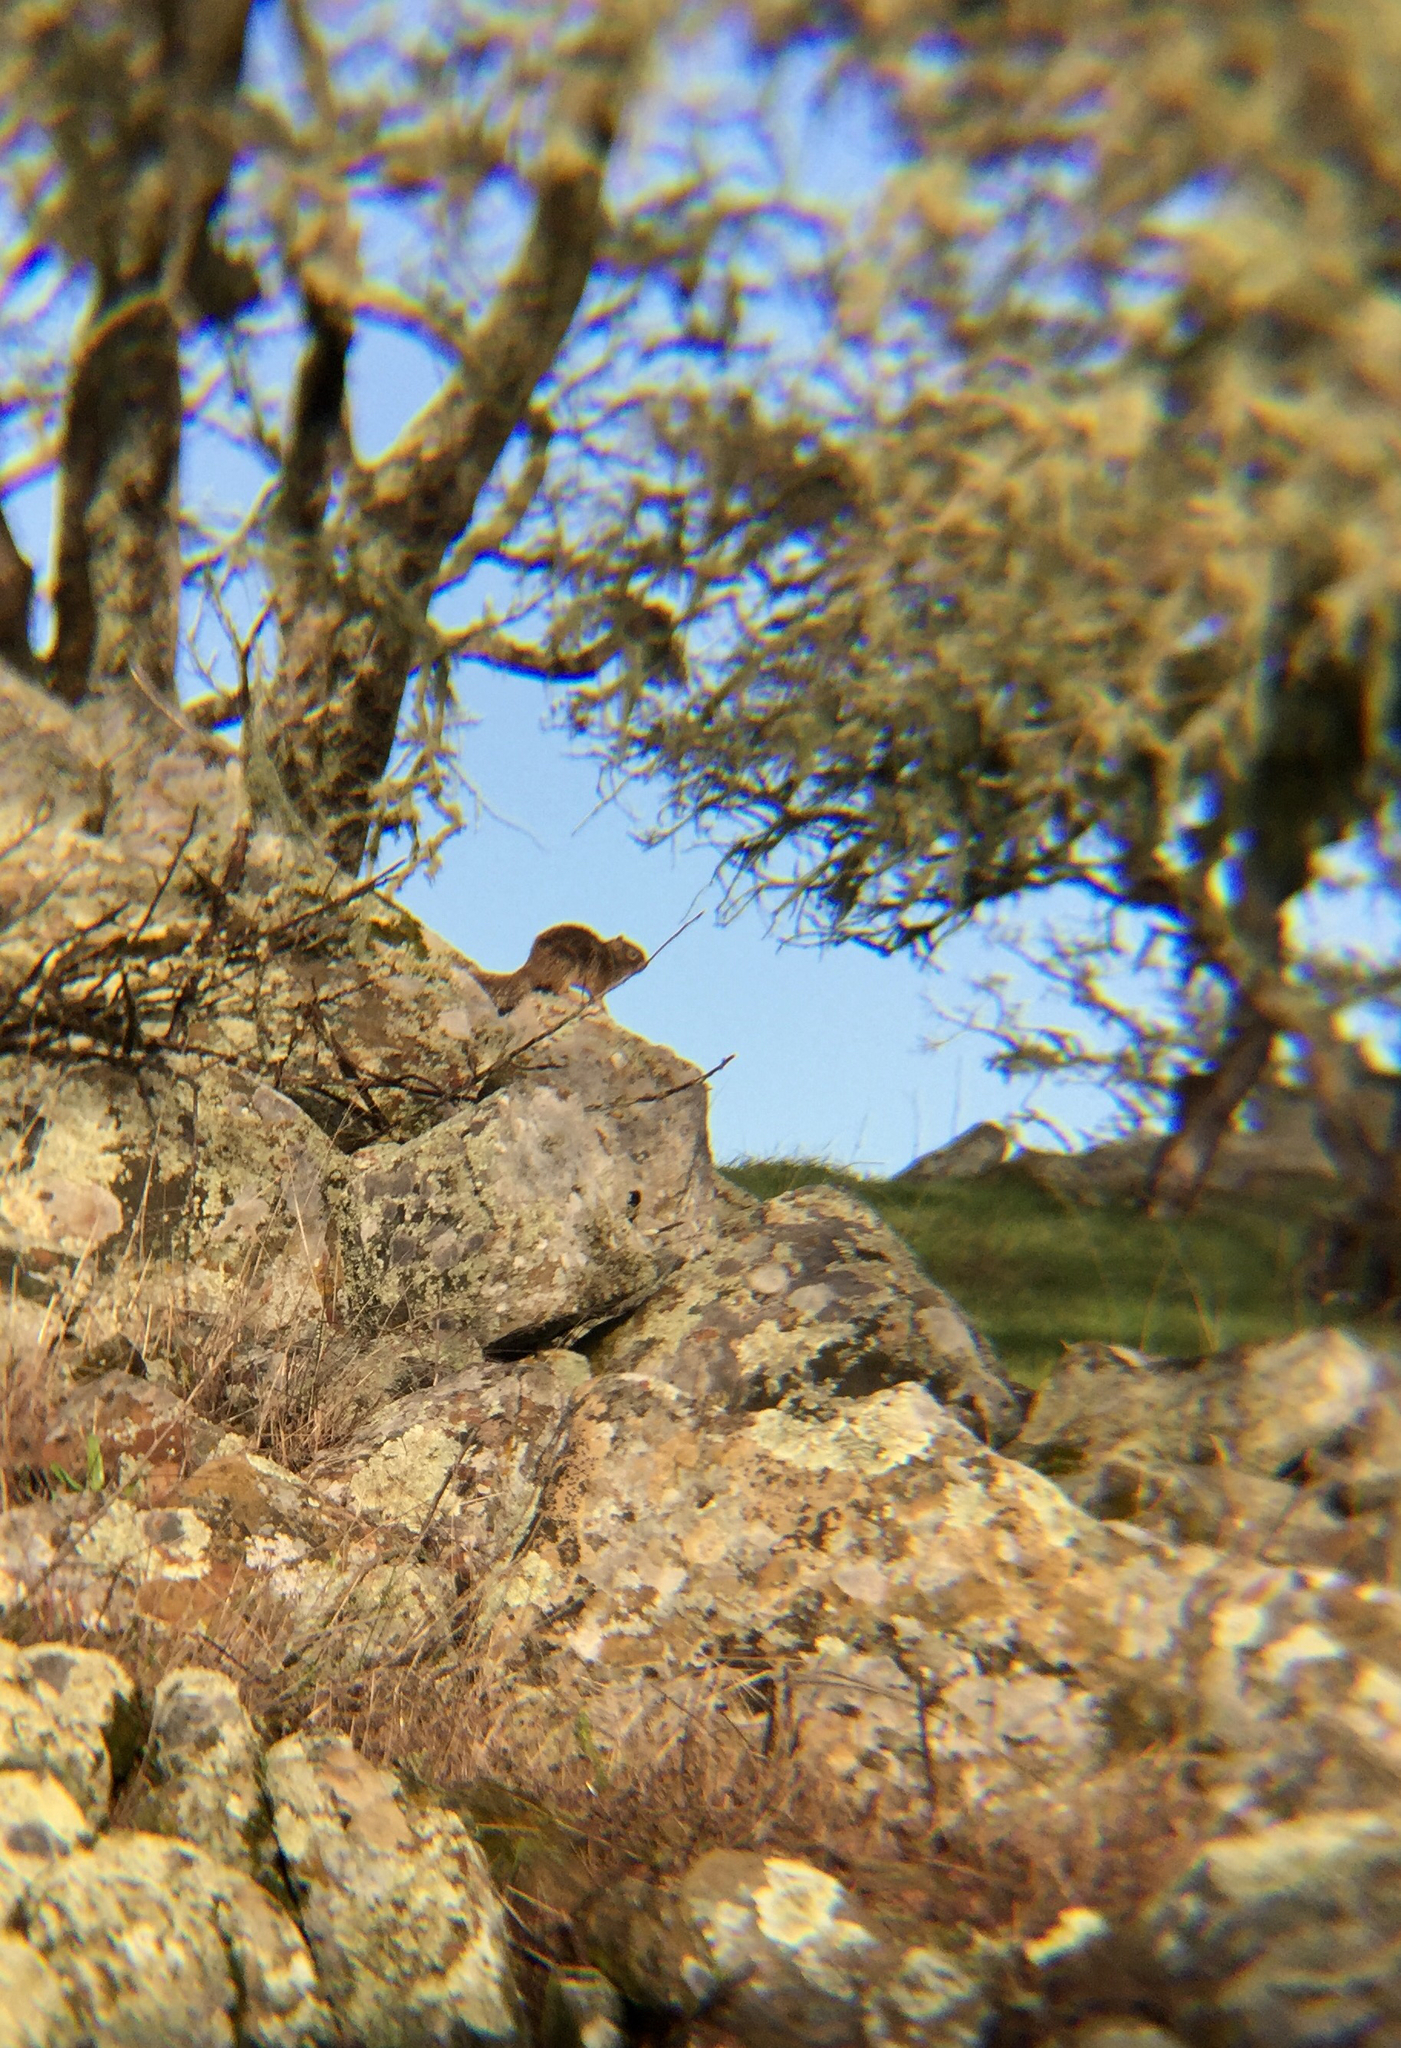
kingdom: Animalia
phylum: Chordata
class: Mammalia
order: Rodentia
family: Sciuridae
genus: Otospermophilus
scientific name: Otospermophilus beecheyi
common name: California ground squirrel
